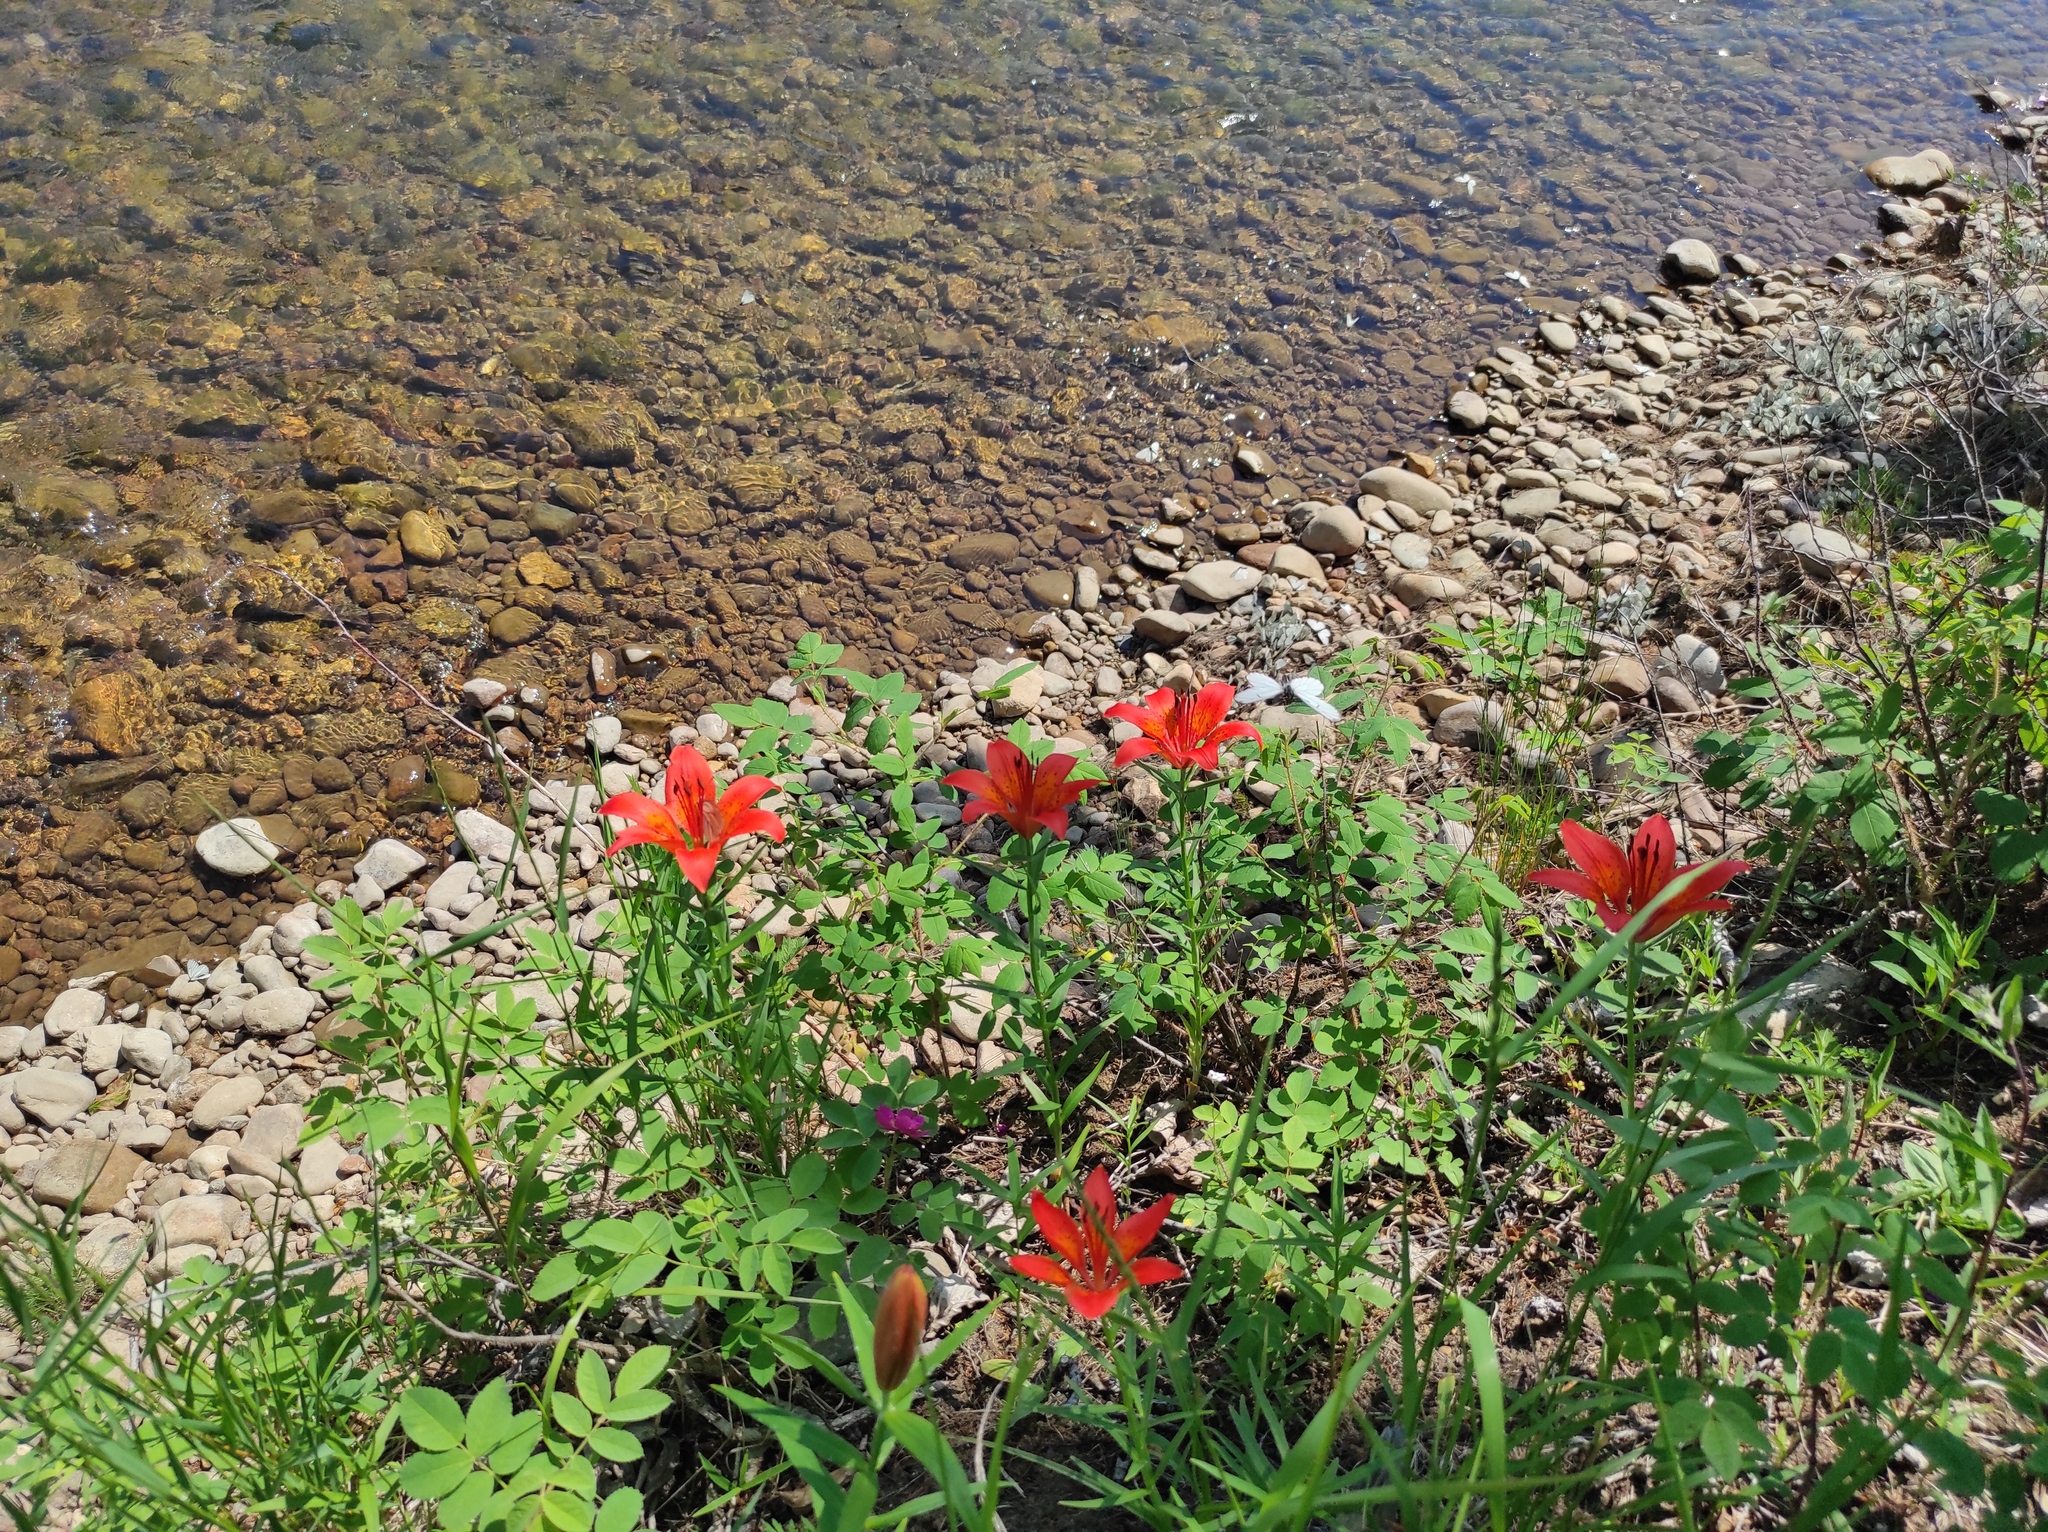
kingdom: Plantae
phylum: Tracheophyta
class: Liliopsida
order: Liliales
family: Liliaceae
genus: Lilium
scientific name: Lilium pensylvanicum
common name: Candlestick lily
